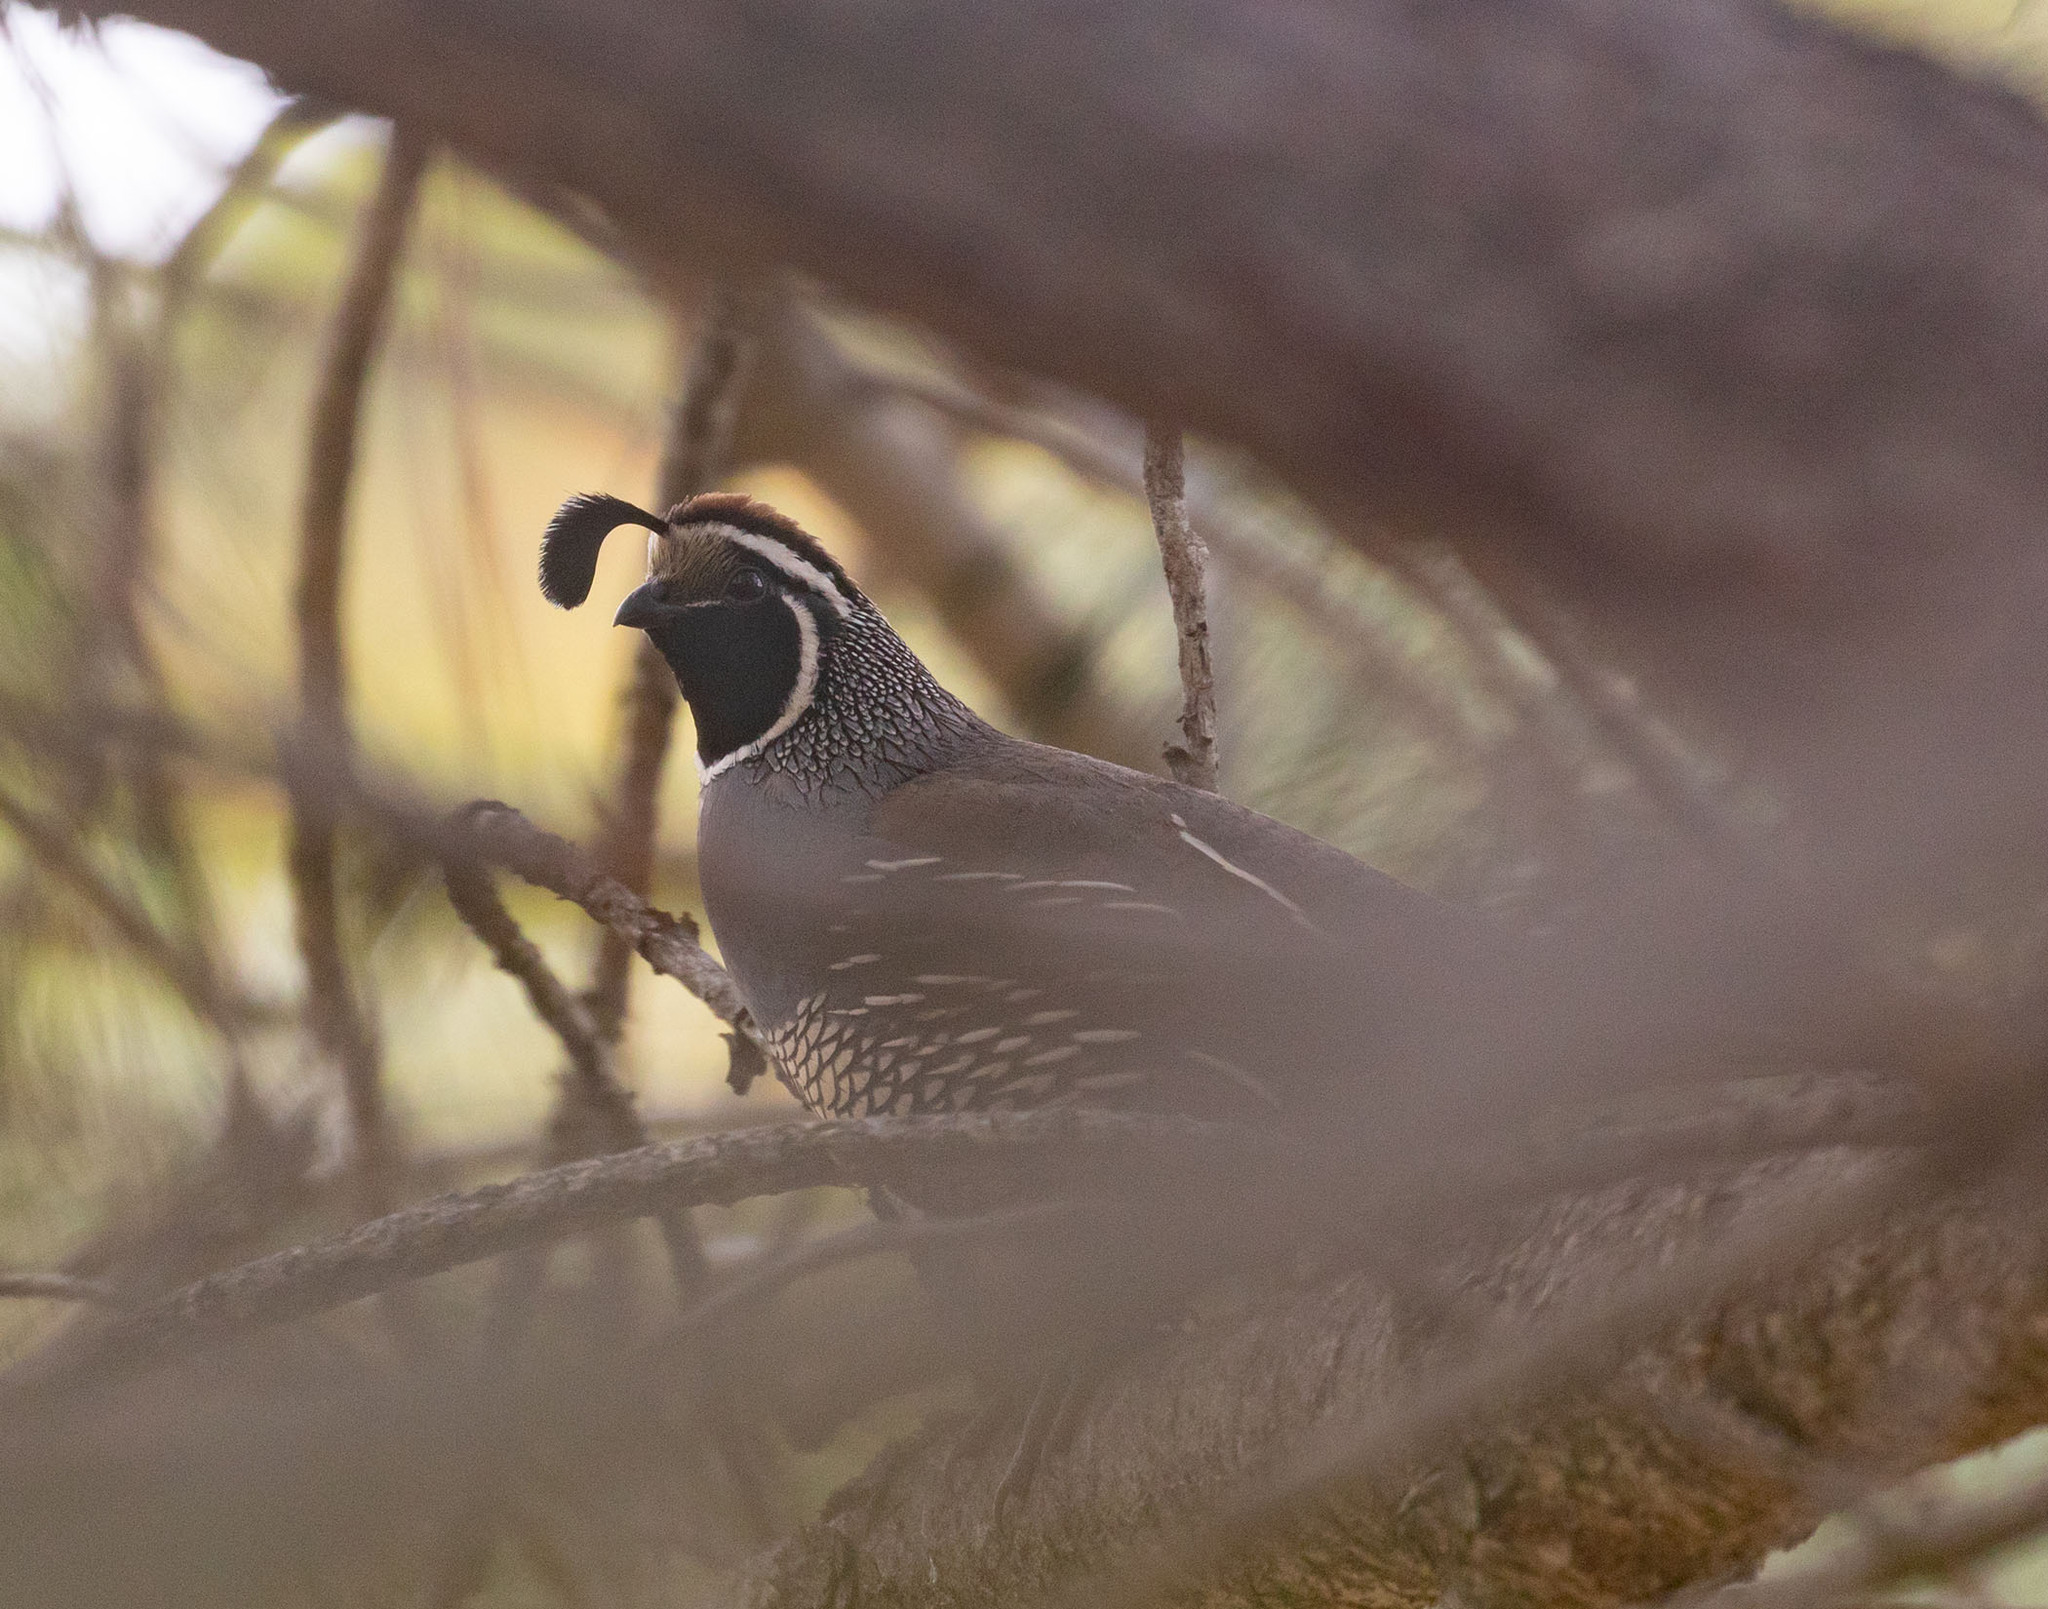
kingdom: Animalia
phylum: Chordata
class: Aves
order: Galliformes
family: Odontophoridae
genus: Callipepla
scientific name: Callipepla californica
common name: California quail
